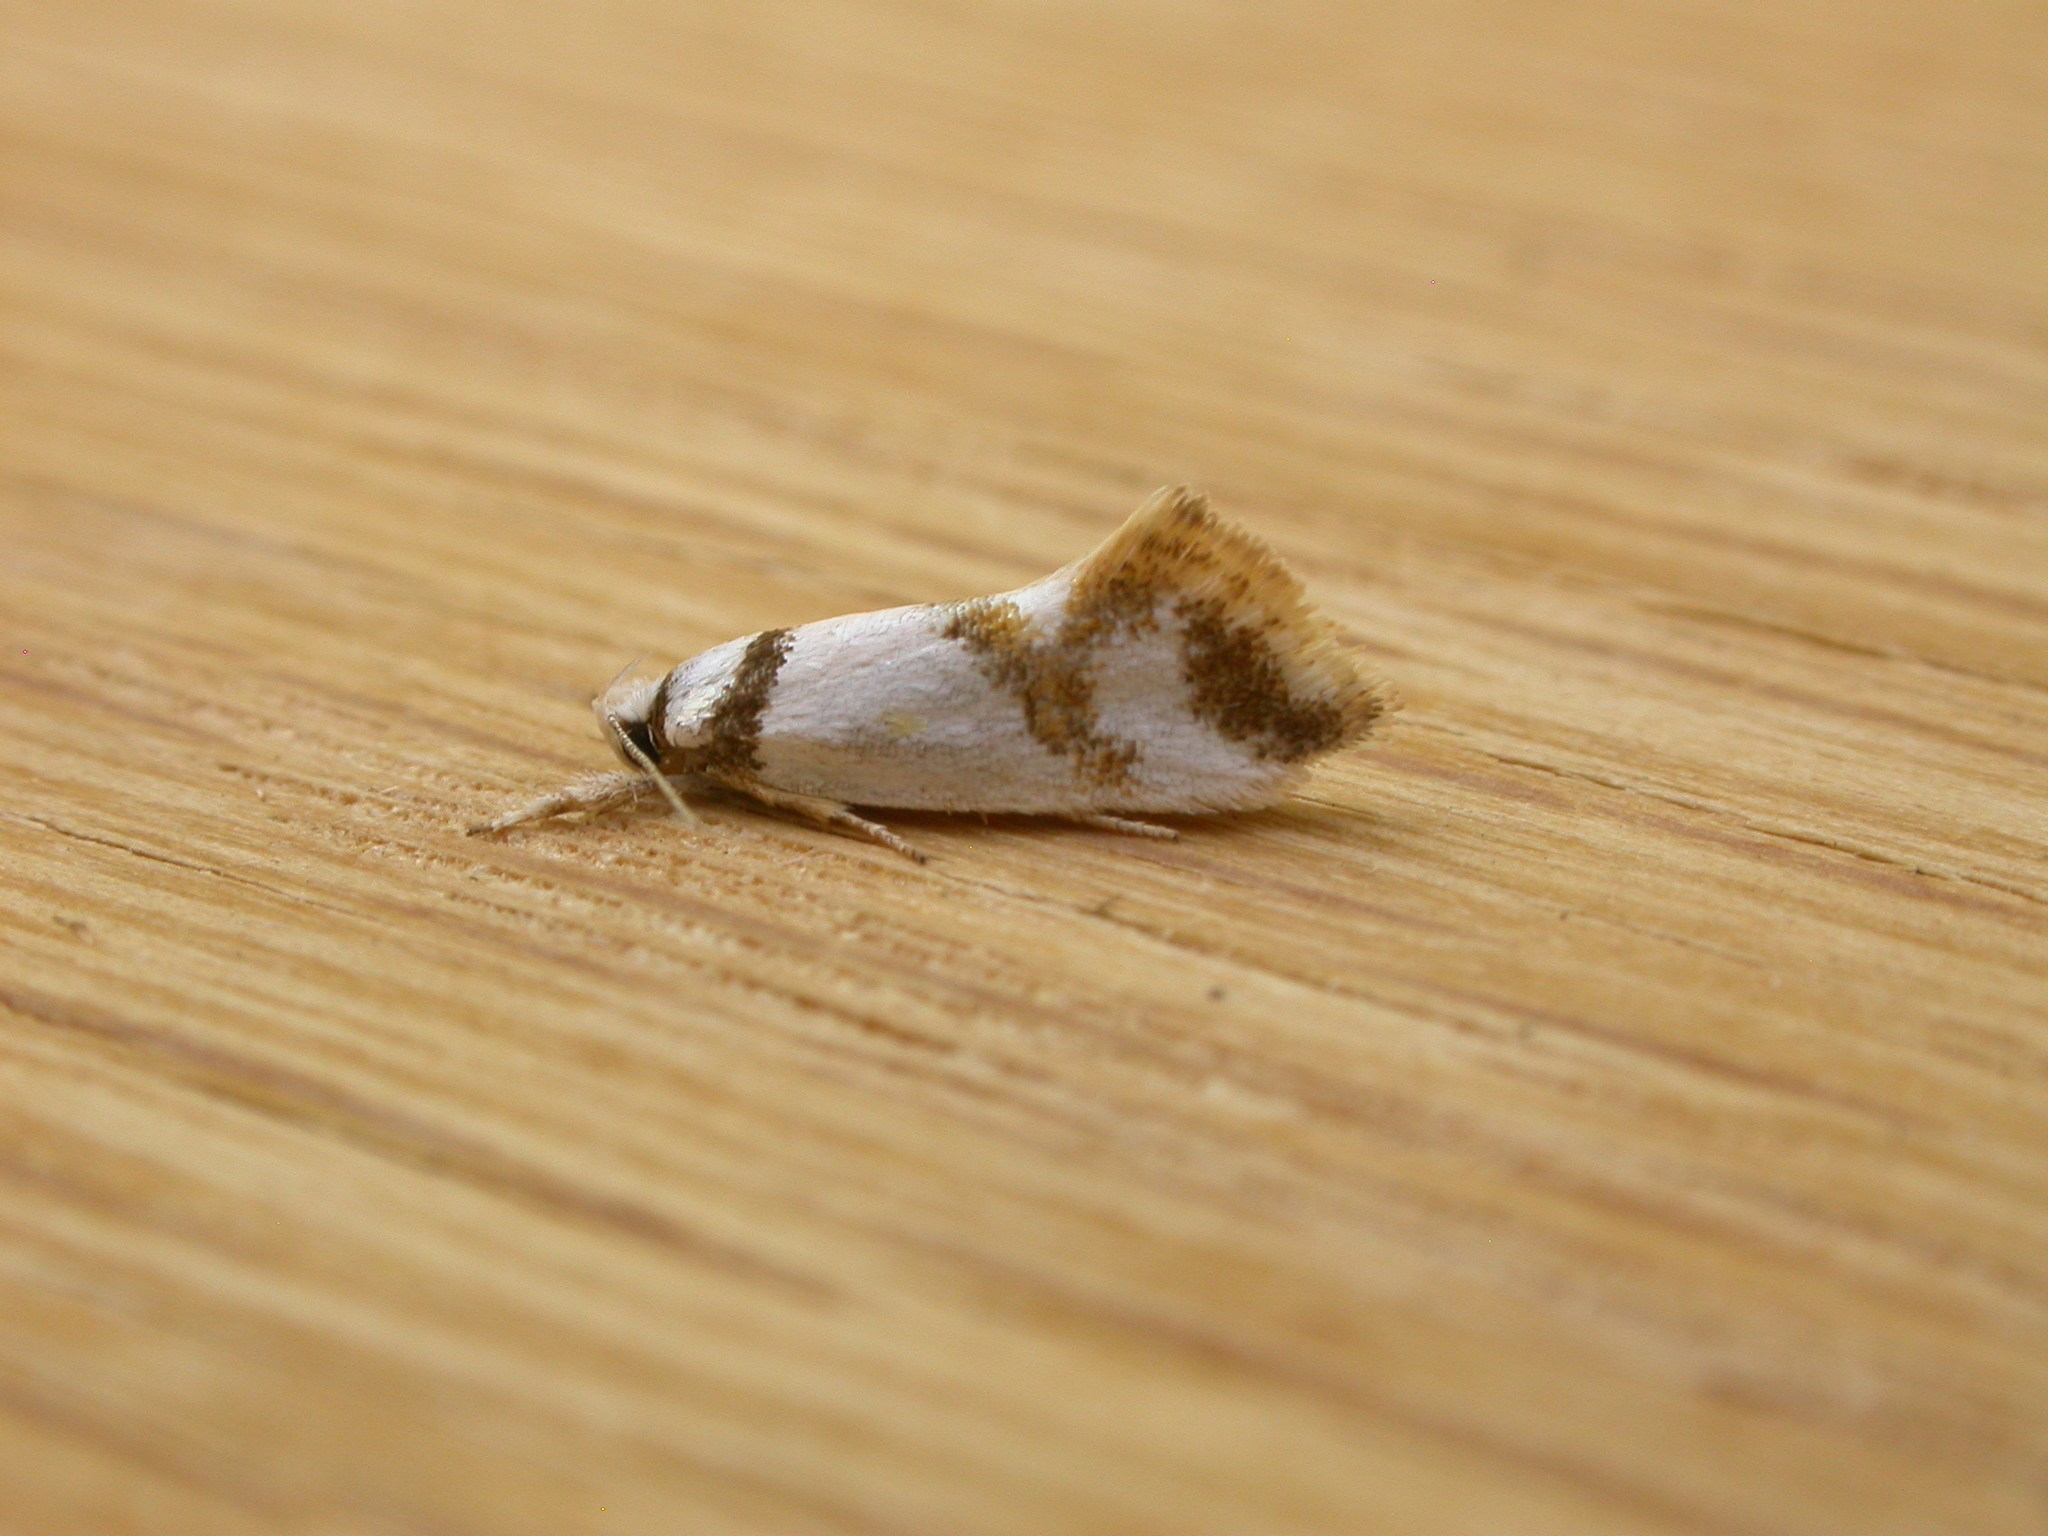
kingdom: Animalia
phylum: Arthropoda
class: Insecta
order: Lepidoptera
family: Oecophoridae
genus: Lepidotarsa
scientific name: Lepidotarsa habrodelta
